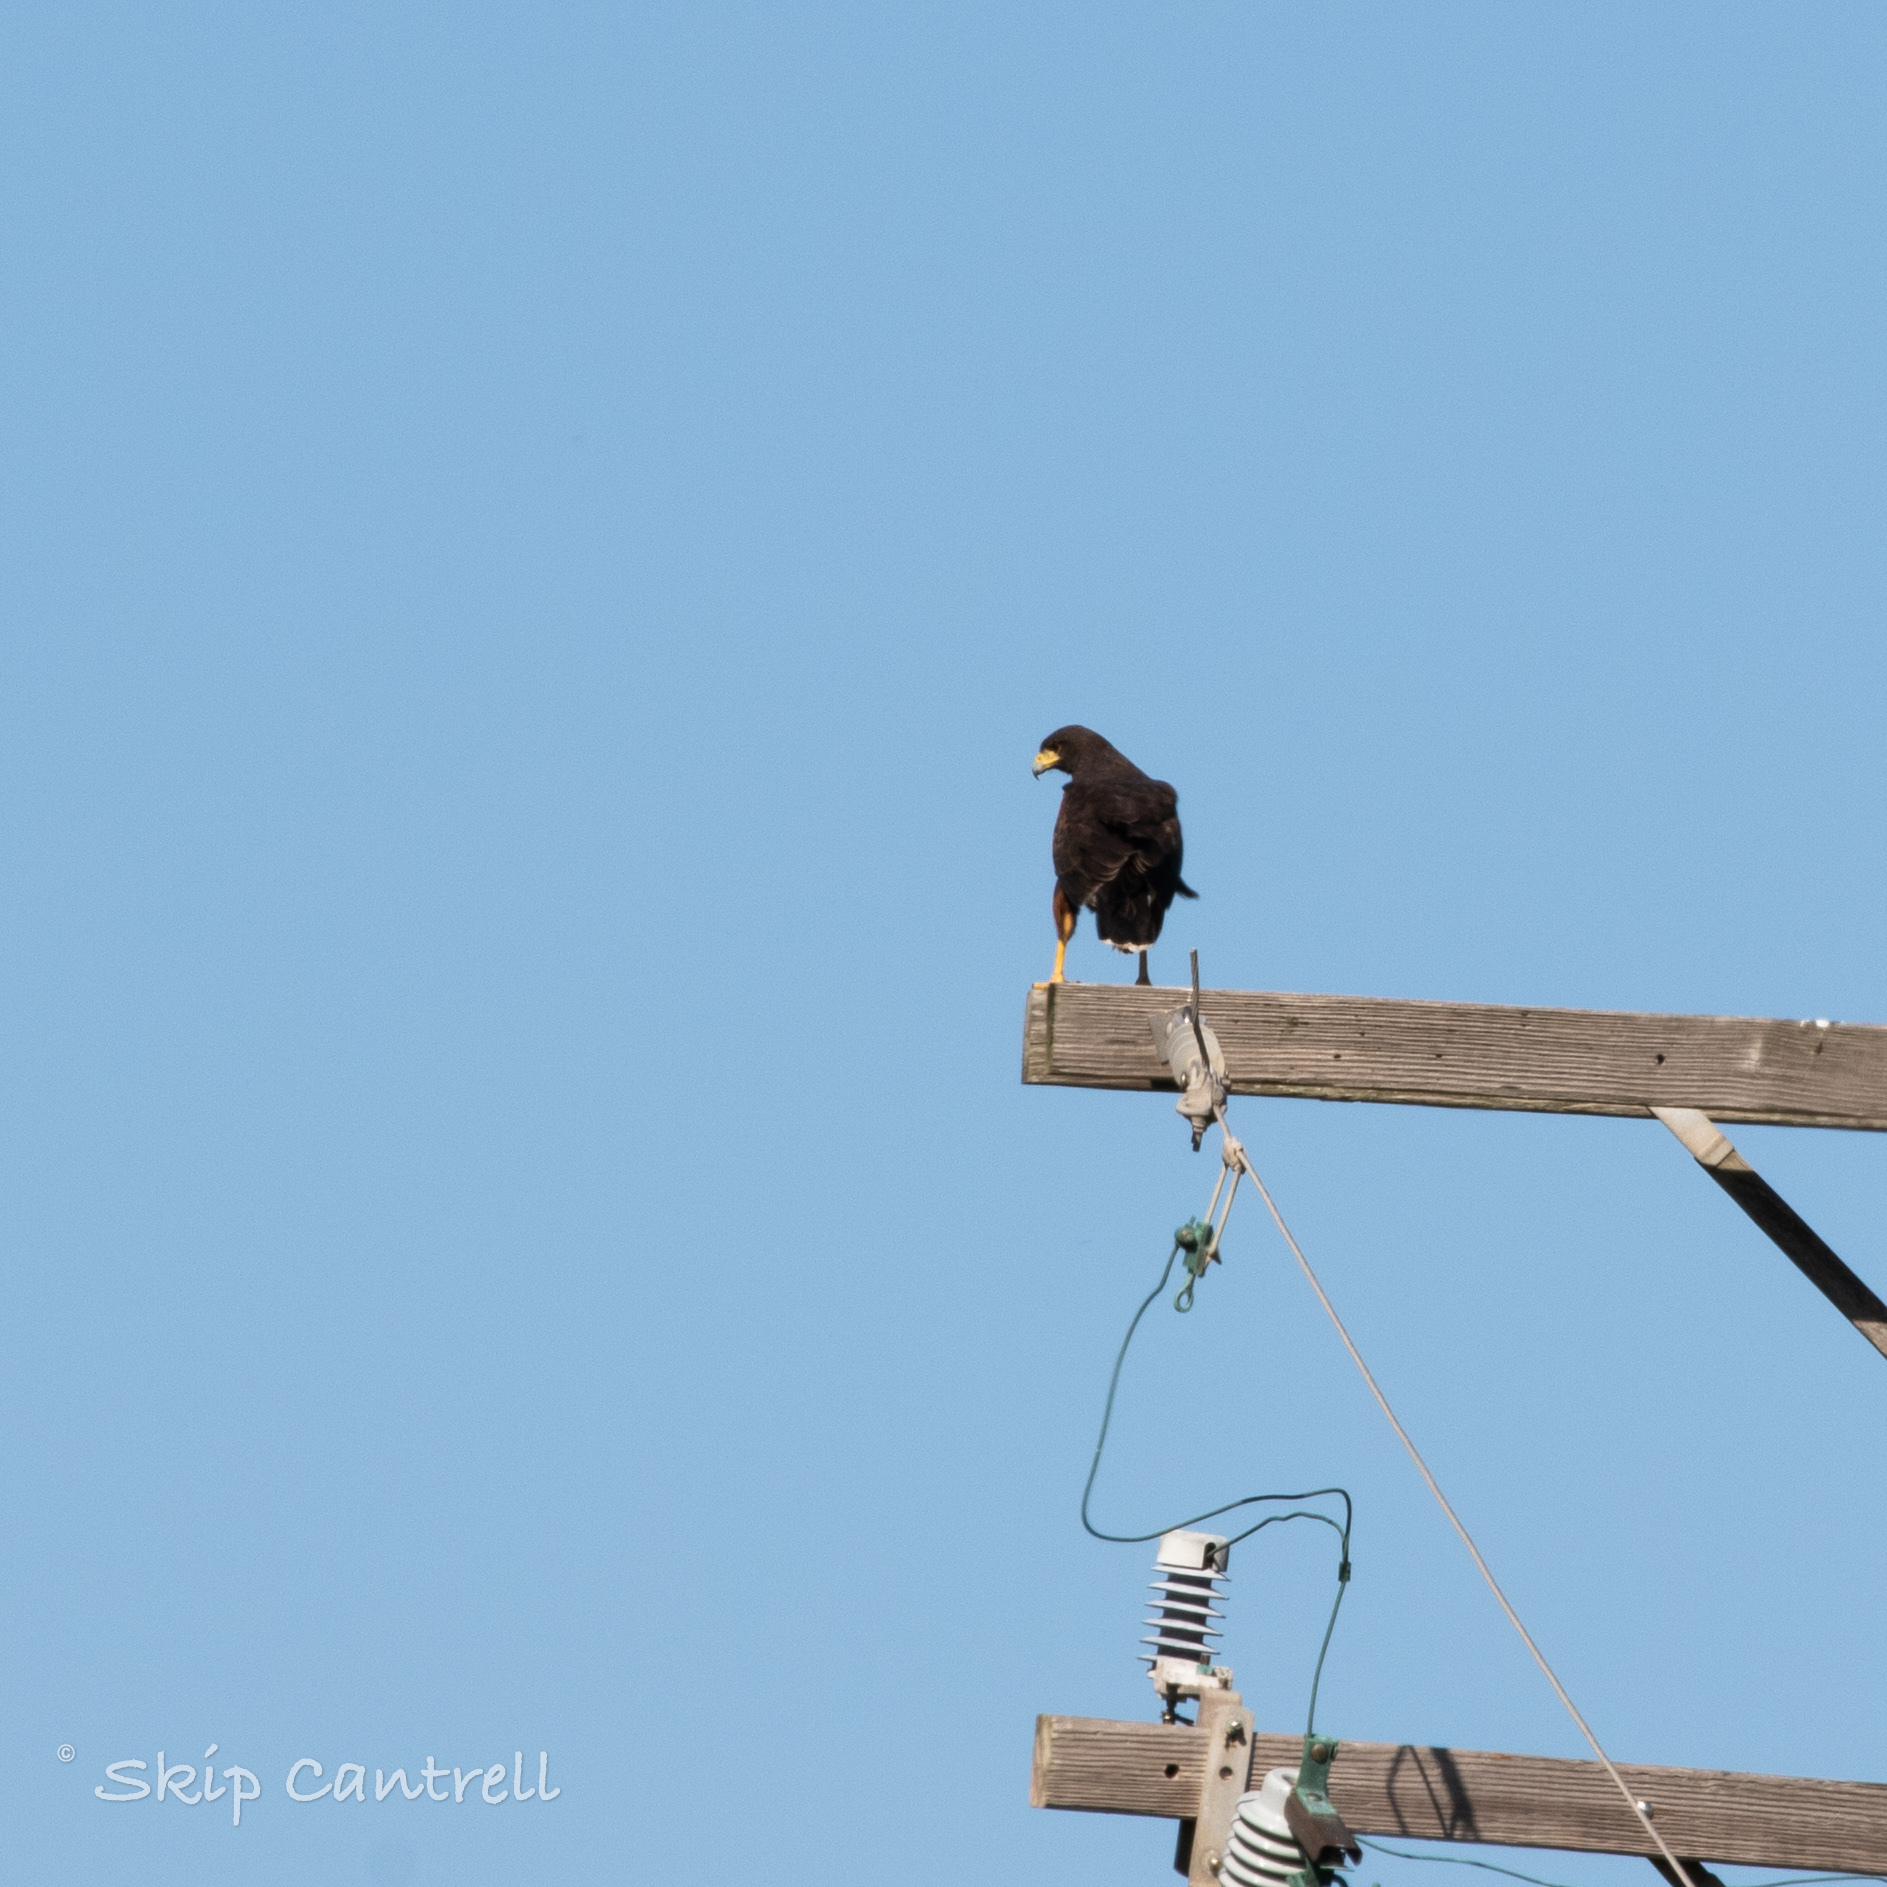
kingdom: Animalia
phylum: Chordata
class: Aves
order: Accipitriformes
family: Accipitridae
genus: Parabuteo
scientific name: Parabuteo unicinctus
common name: Harris's hawk
